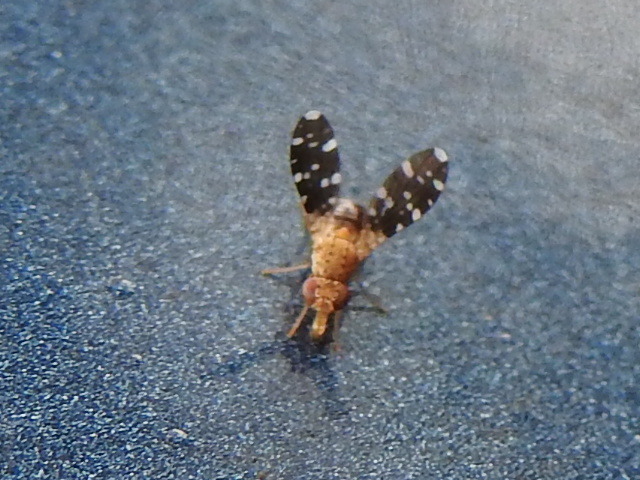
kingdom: Animalia
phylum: Arthropoda
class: Insecta
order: Diptera
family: Heleomyzidae
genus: Trixoscelis
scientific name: Trixoscelis polita
